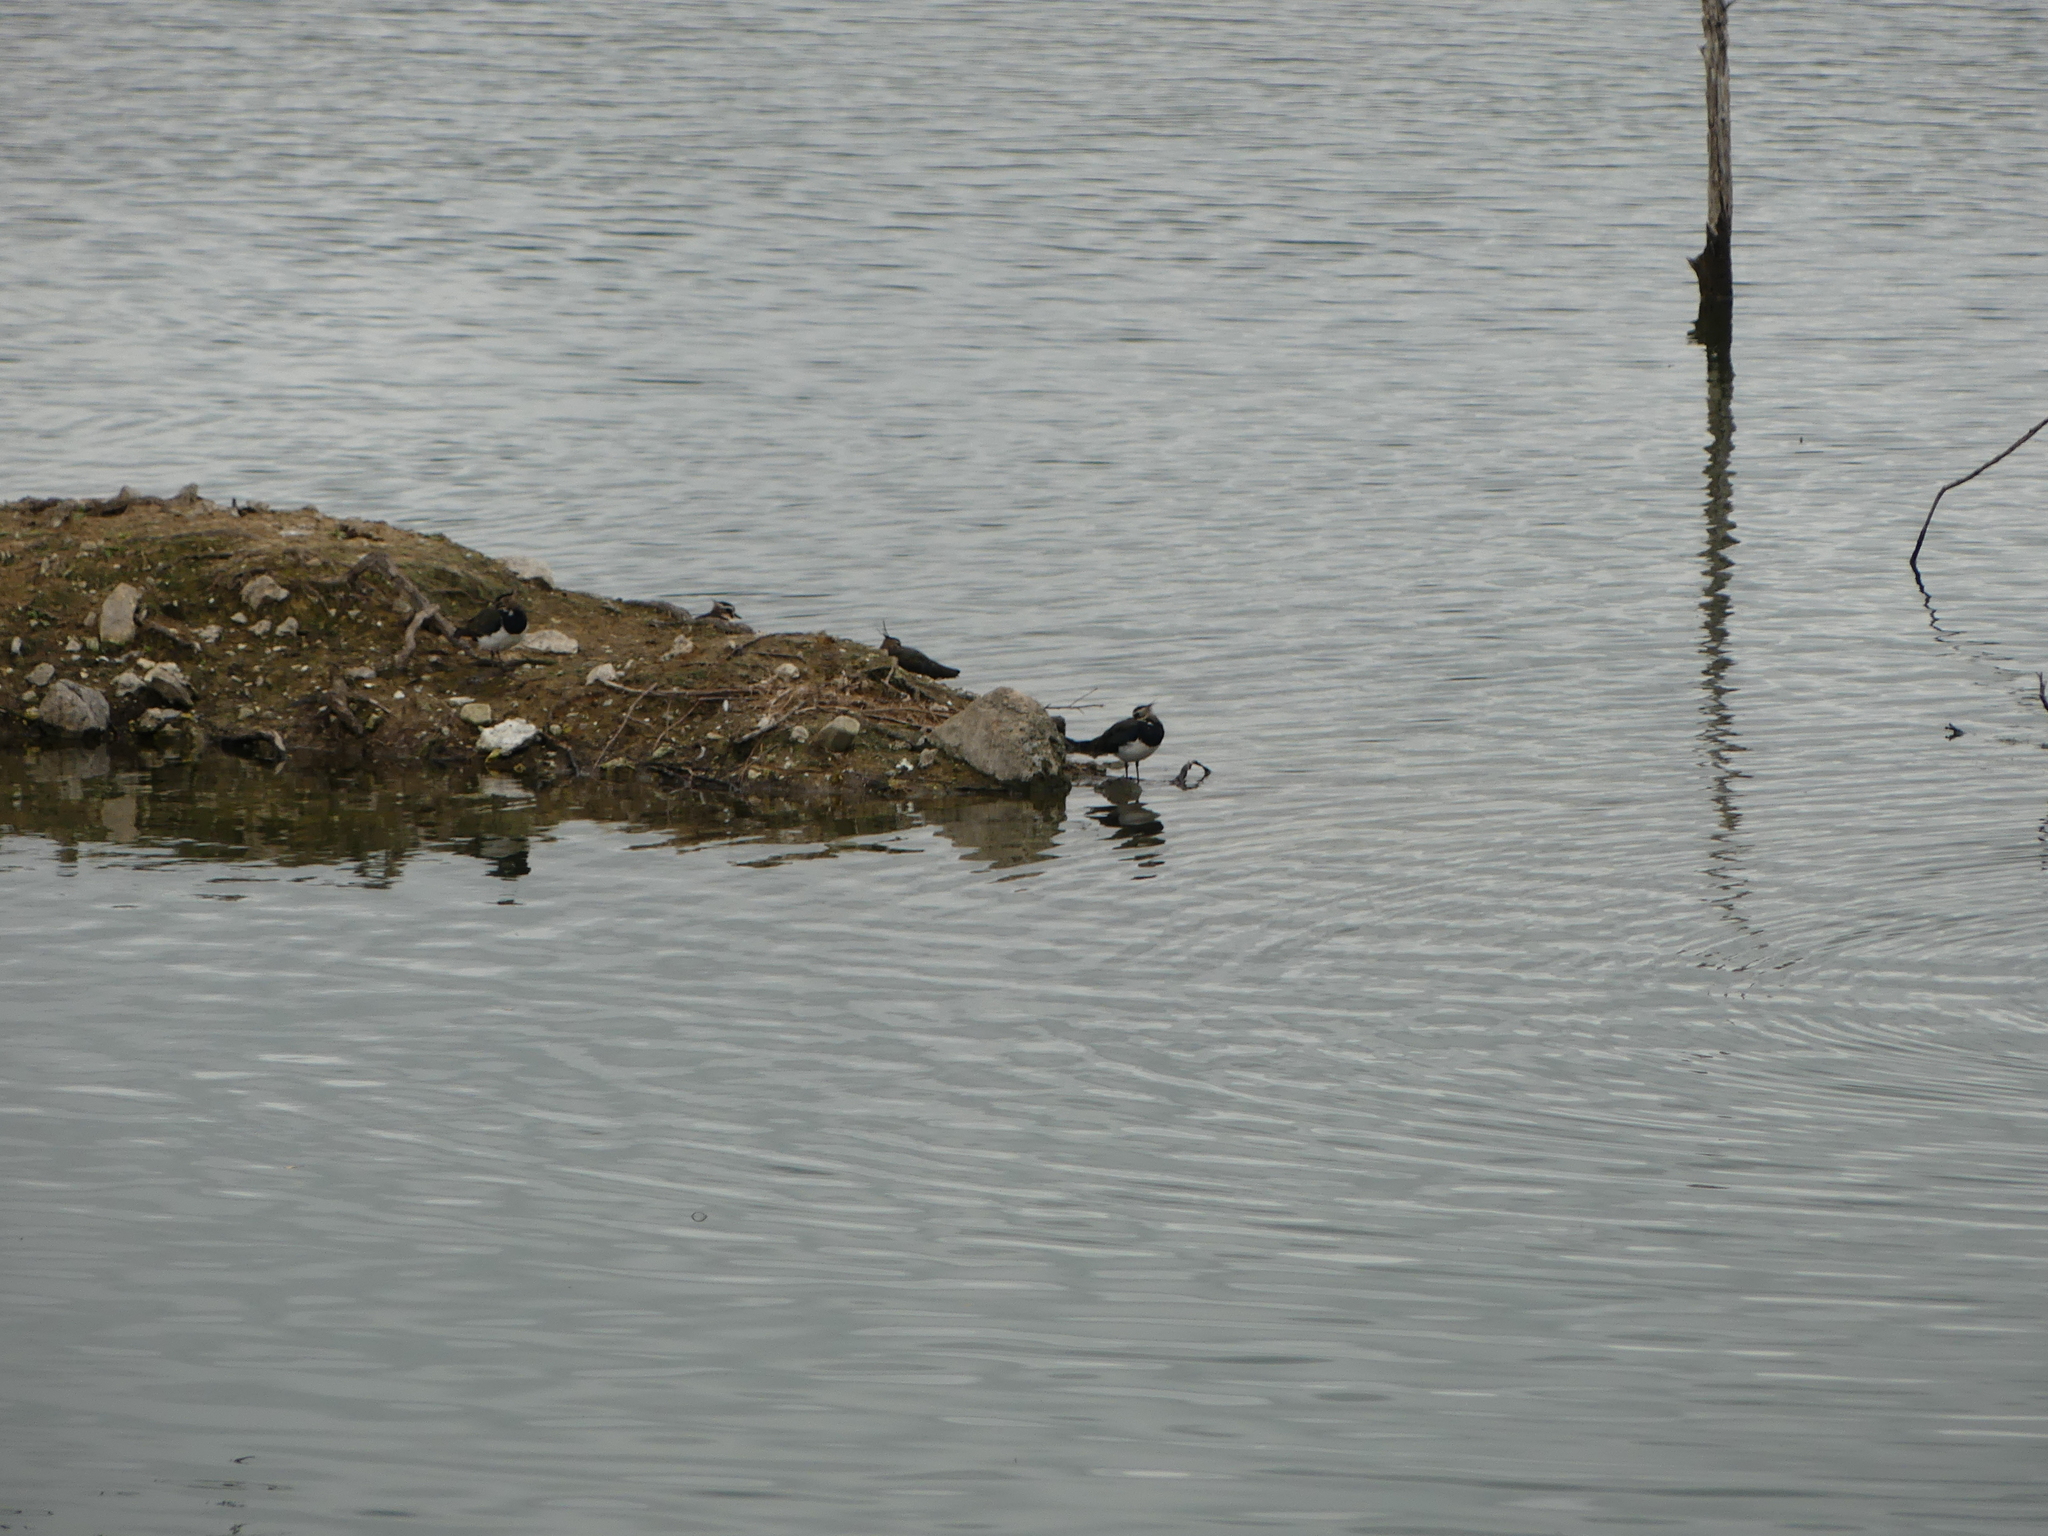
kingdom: Animalia
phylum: Chordata
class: Aves
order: Charadriiformes
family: Charadriidae
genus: Vanellus
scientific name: Vanellus vanellus
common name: Northern lapwing
